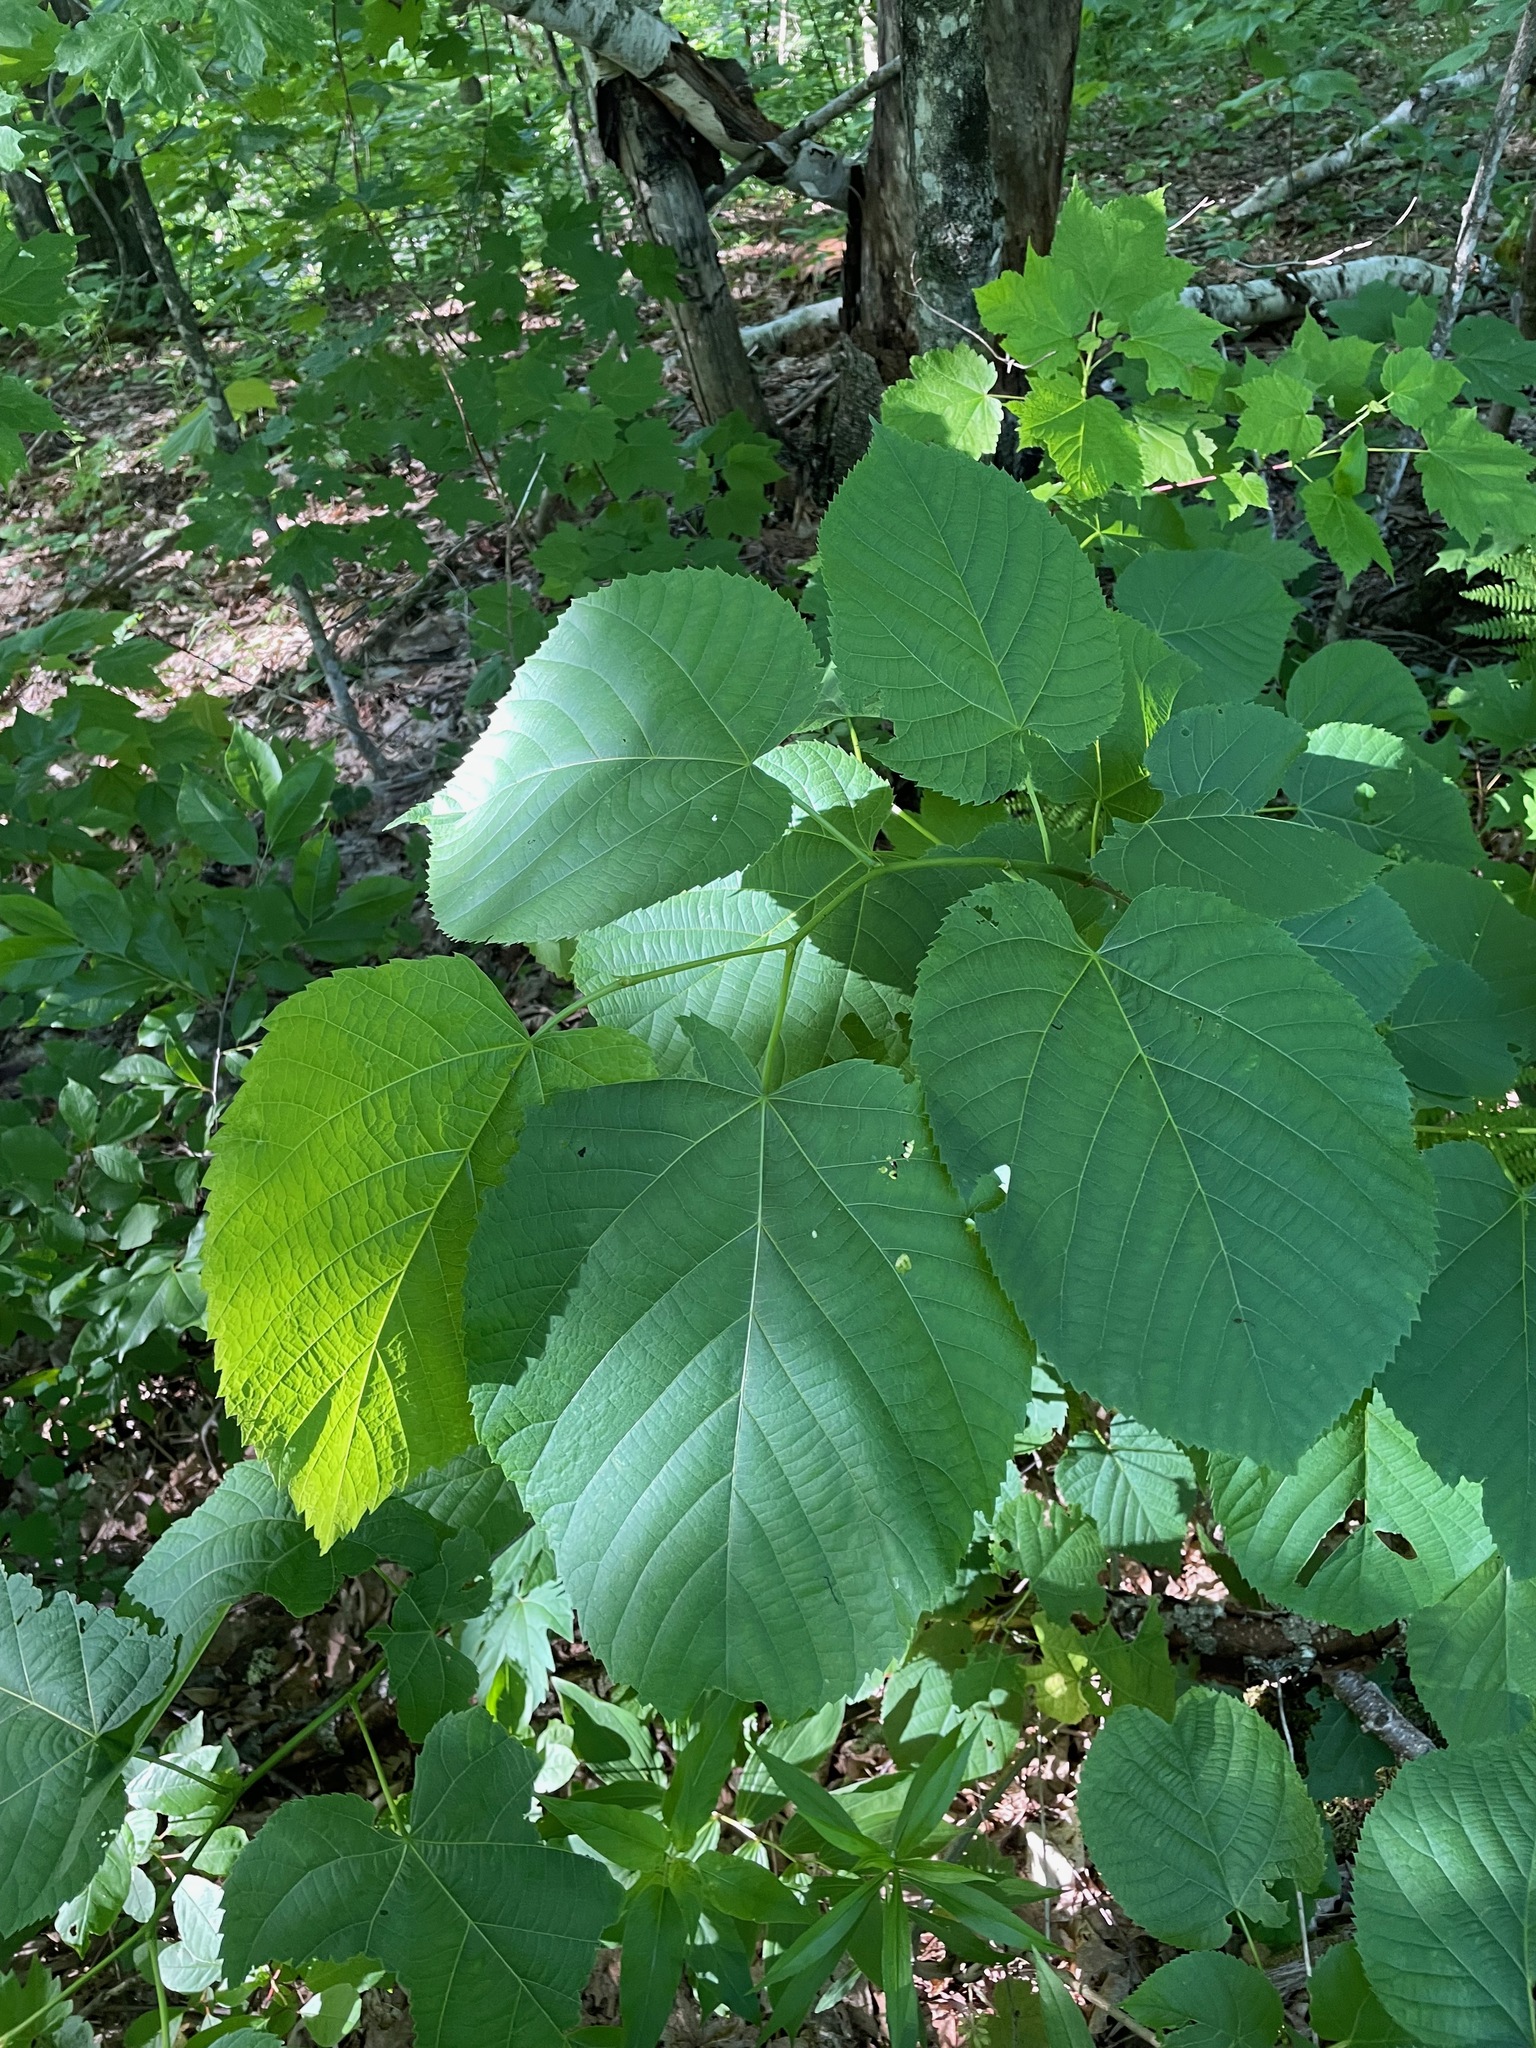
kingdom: Plantae
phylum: Tracheophyta
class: Magnoliopsida
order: Malvales
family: Malvaceae
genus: Tilia
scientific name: Tilia americana
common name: Basswood
